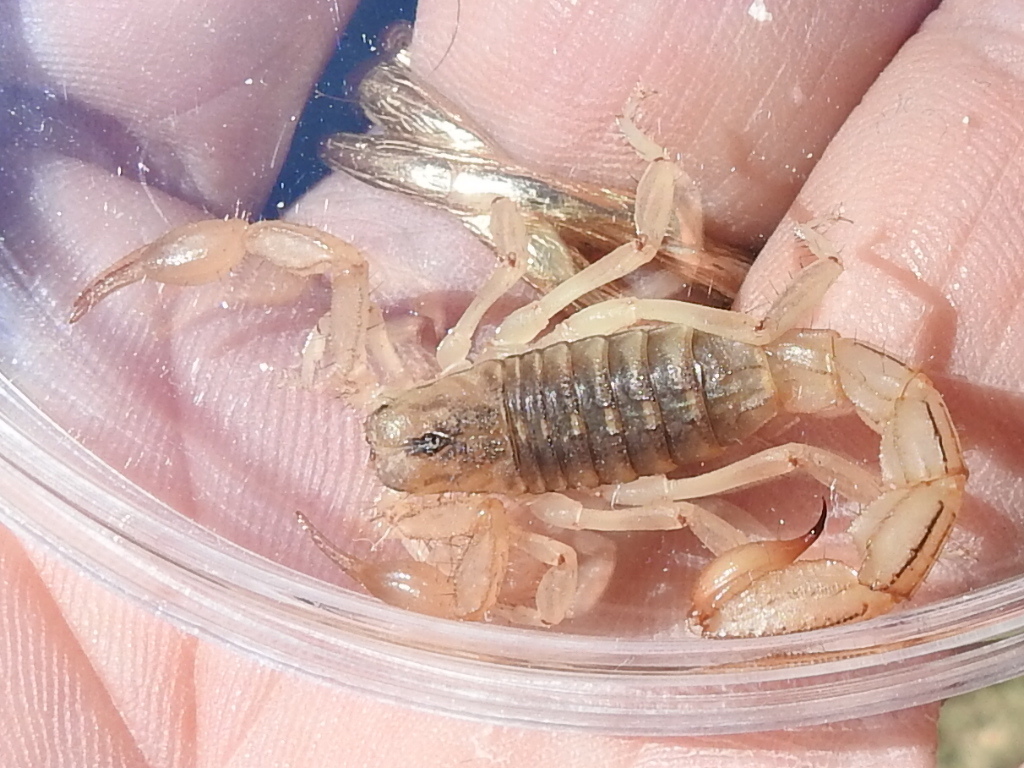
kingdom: Animalia
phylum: Arthropoda
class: Arachnida
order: Scorpiones
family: Vaejovidae
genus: Paravaejovis
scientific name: Paravaejovis spinigerus
